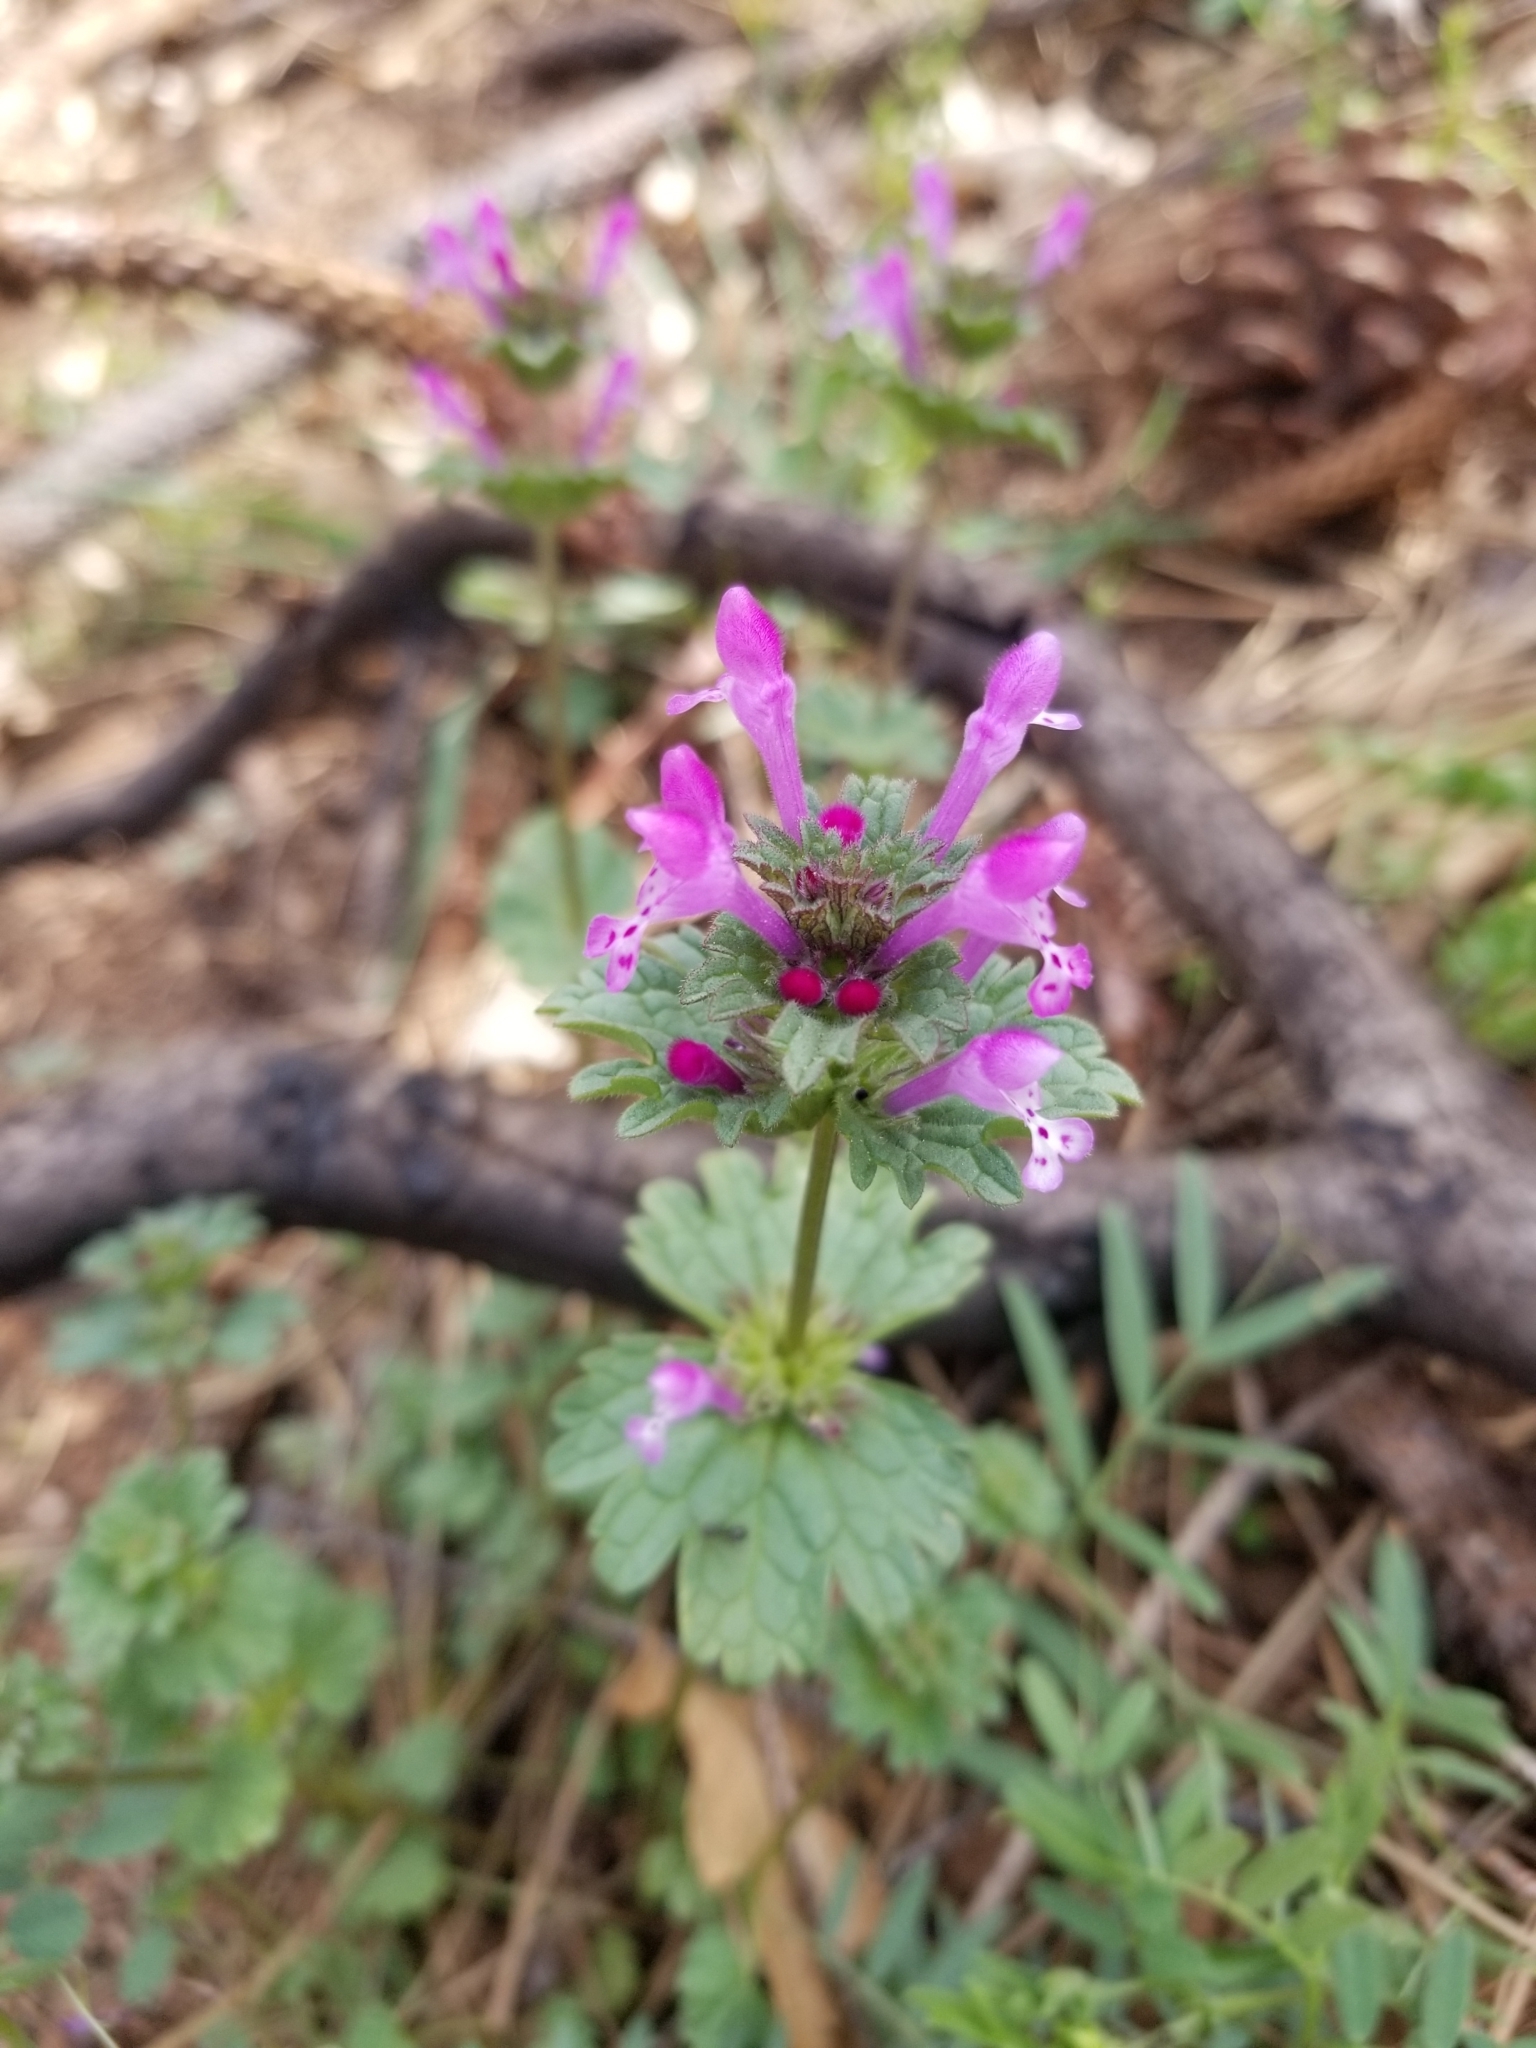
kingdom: Plantae
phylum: Tracheophyta
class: Magnoliopsida
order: Lamiales
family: Lamiaceae
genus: Lamium
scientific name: Lamium amplexicaule
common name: Henbit dead-nettle
